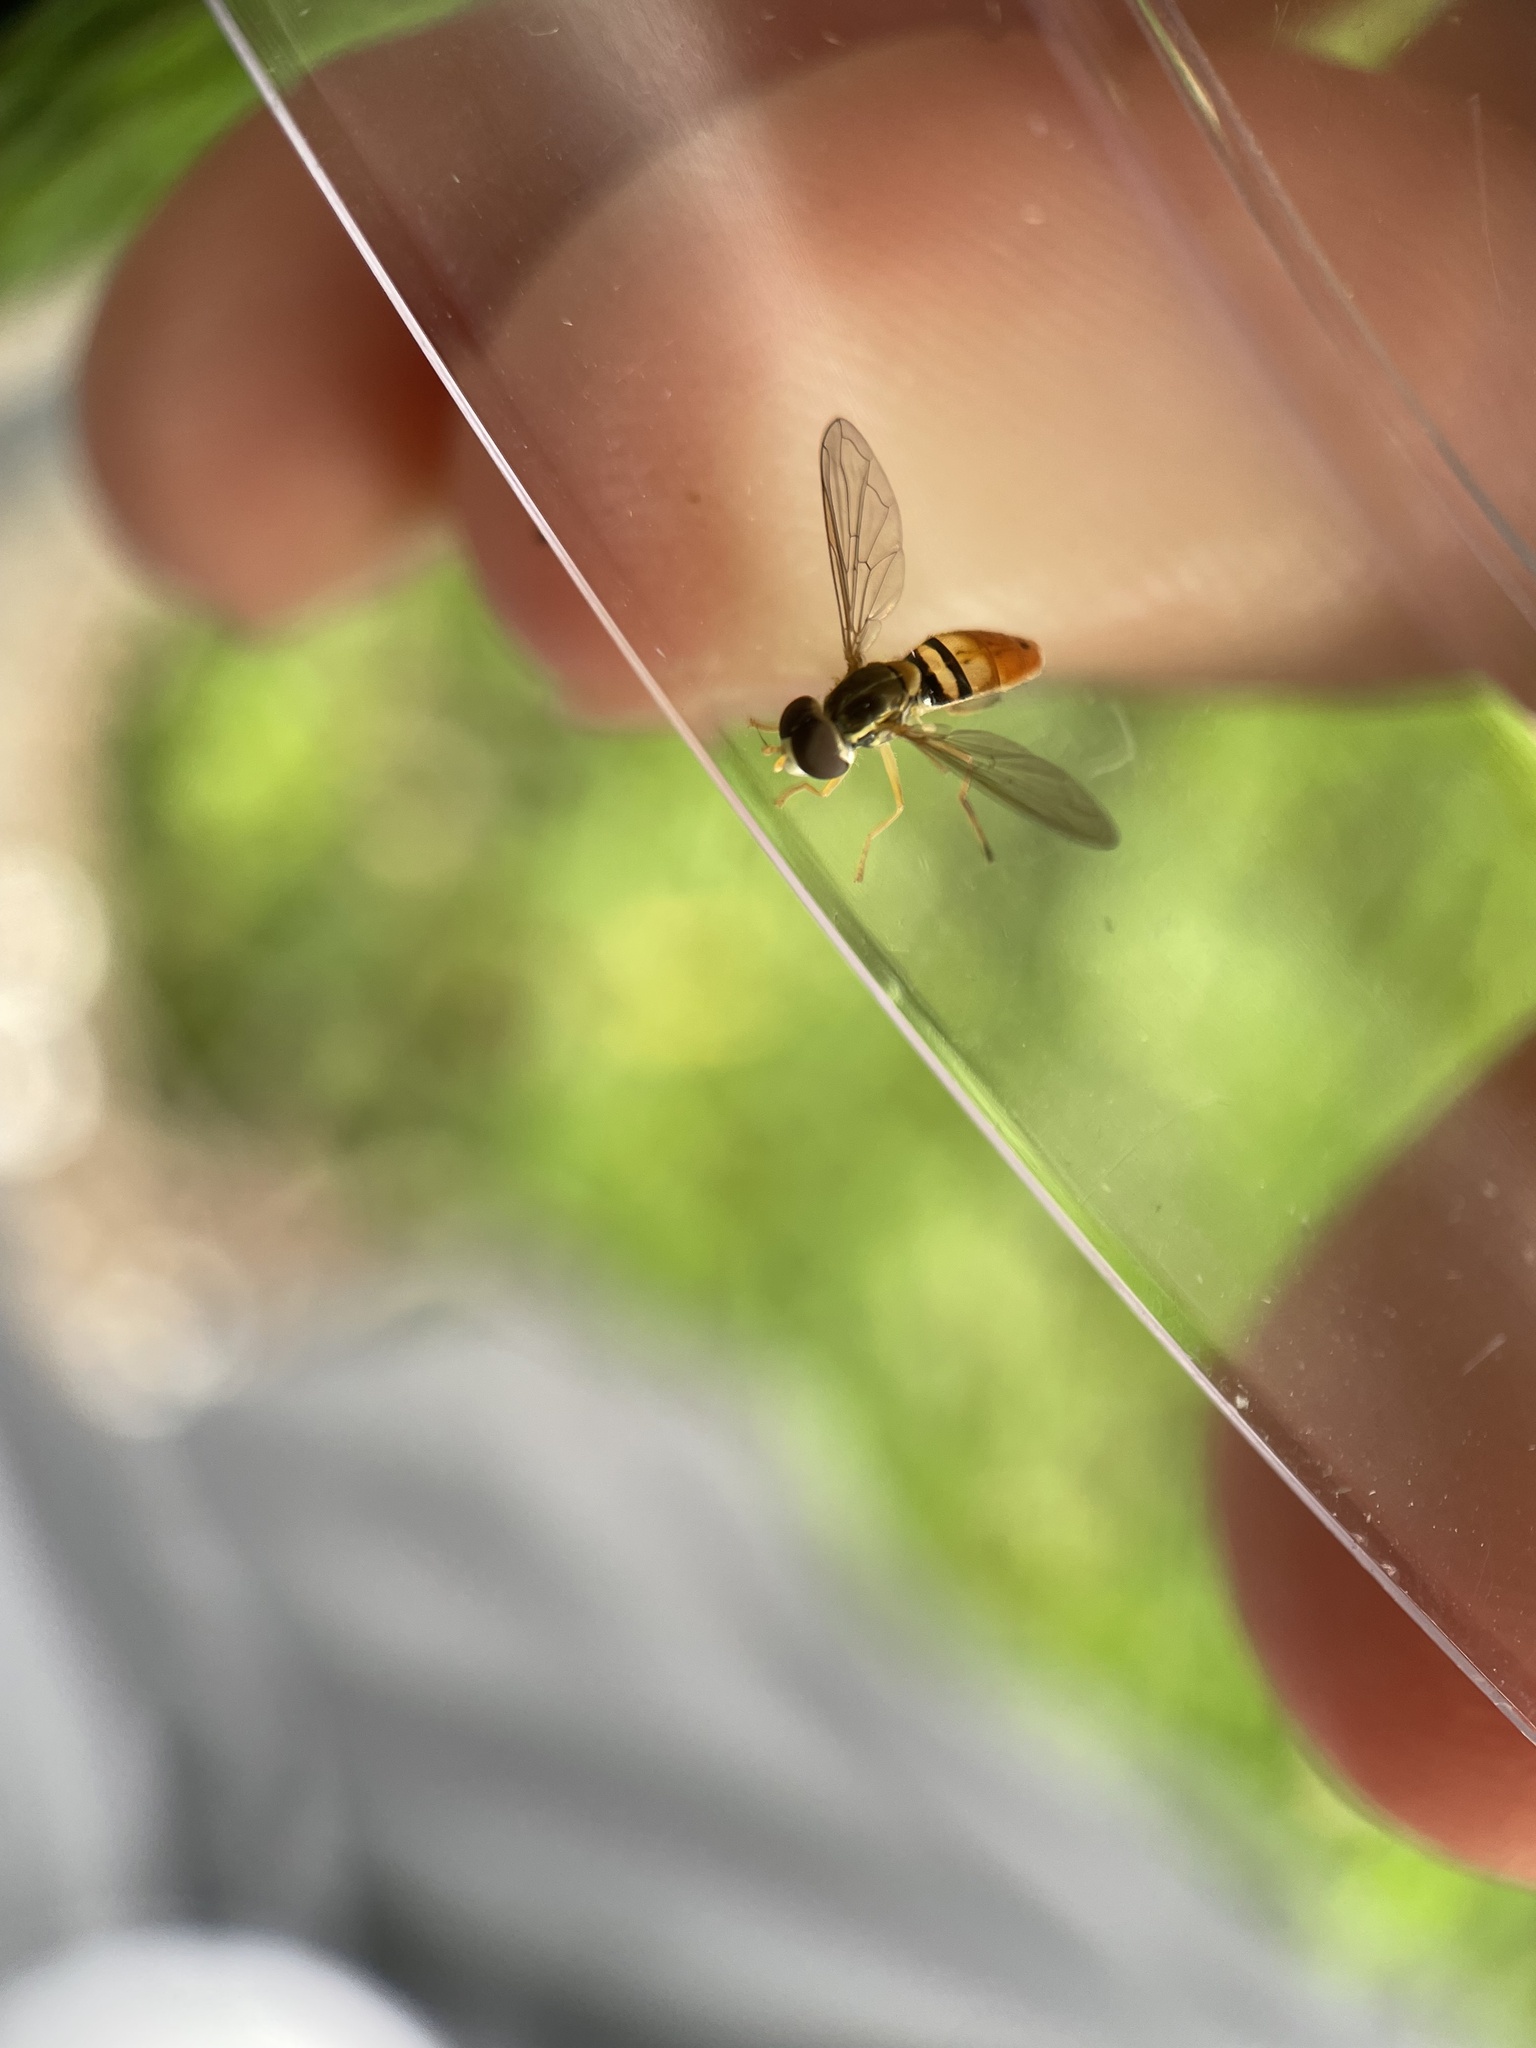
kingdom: Animalia
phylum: Arthropoda
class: Insecta
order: Diptera
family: Syrphidae
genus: Toxomerus
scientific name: Toxomerus marginatus
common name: Syrphid fly
